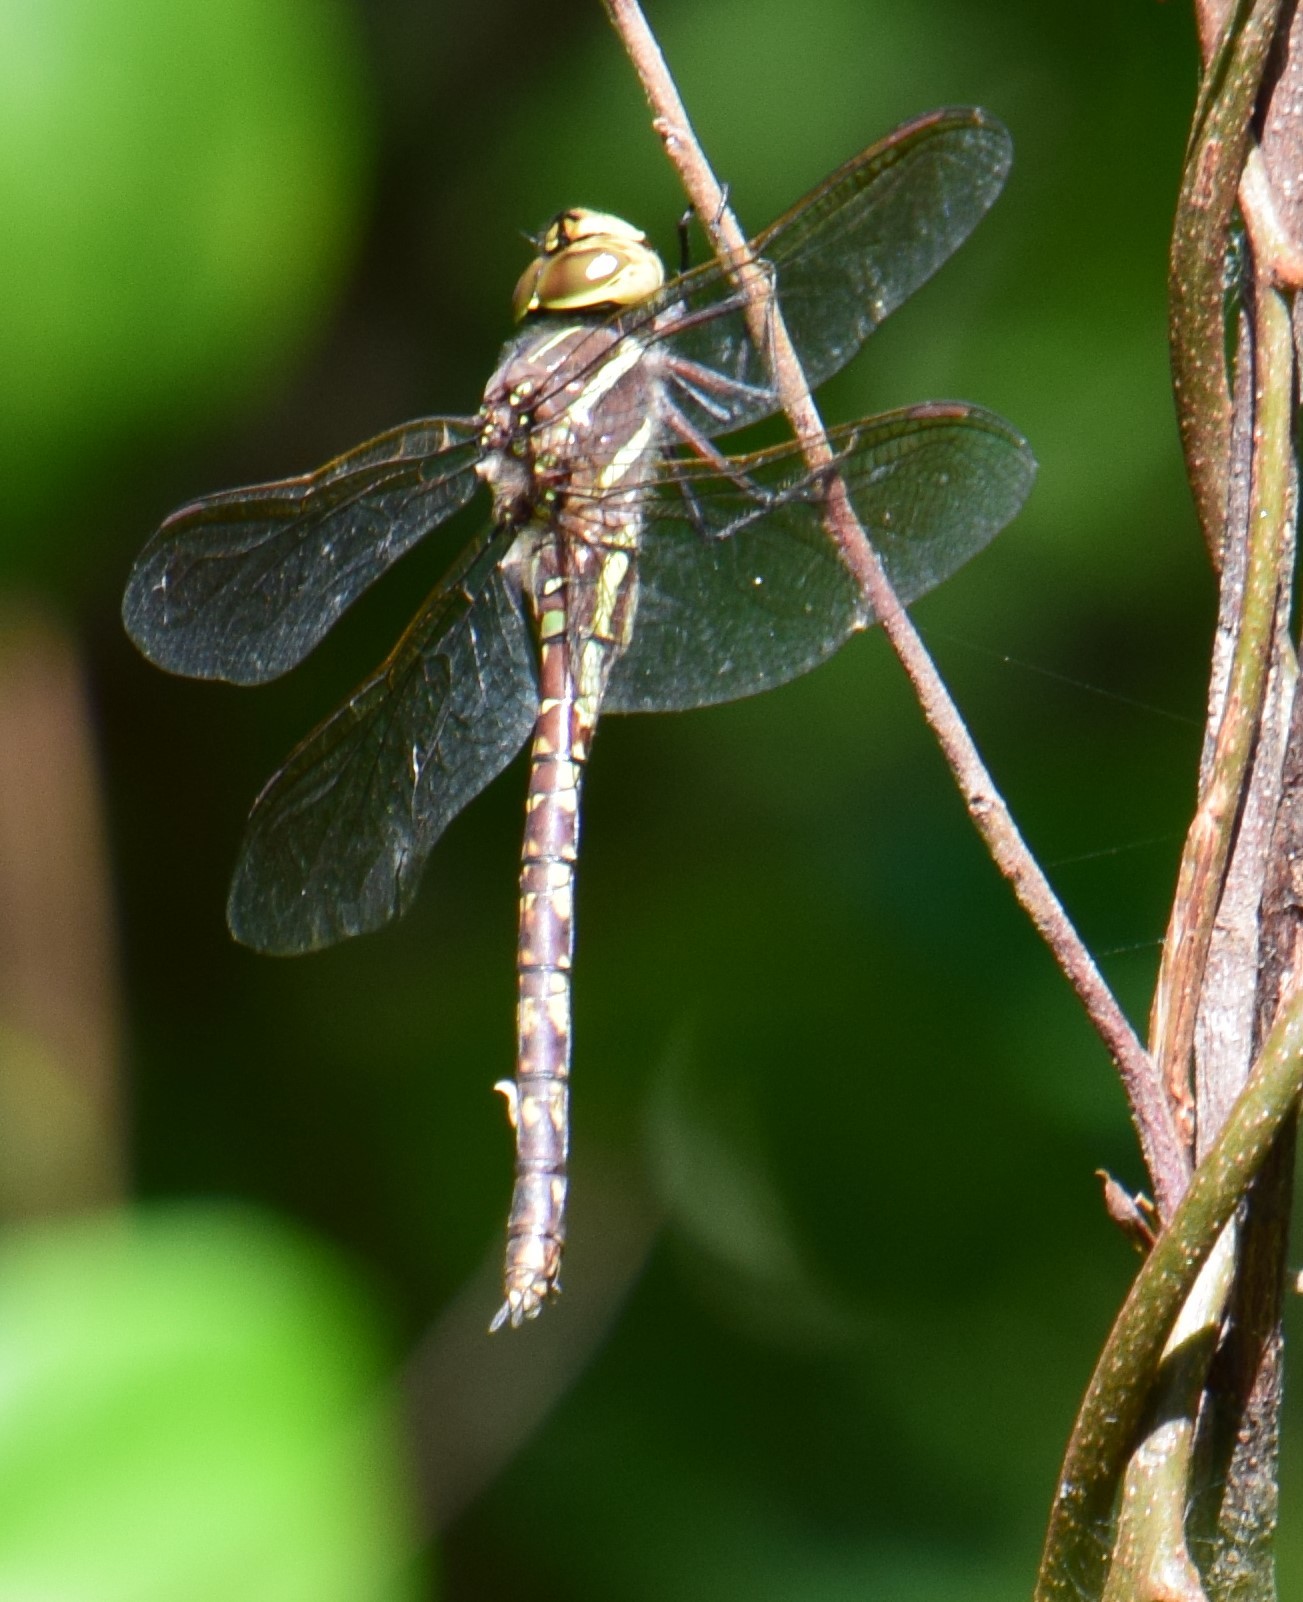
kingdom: Animalia
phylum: Arthropoda
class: Insecta
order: Odonata
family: Aeshnidae
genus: Aeshna
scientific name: Aeshna brevistyla
